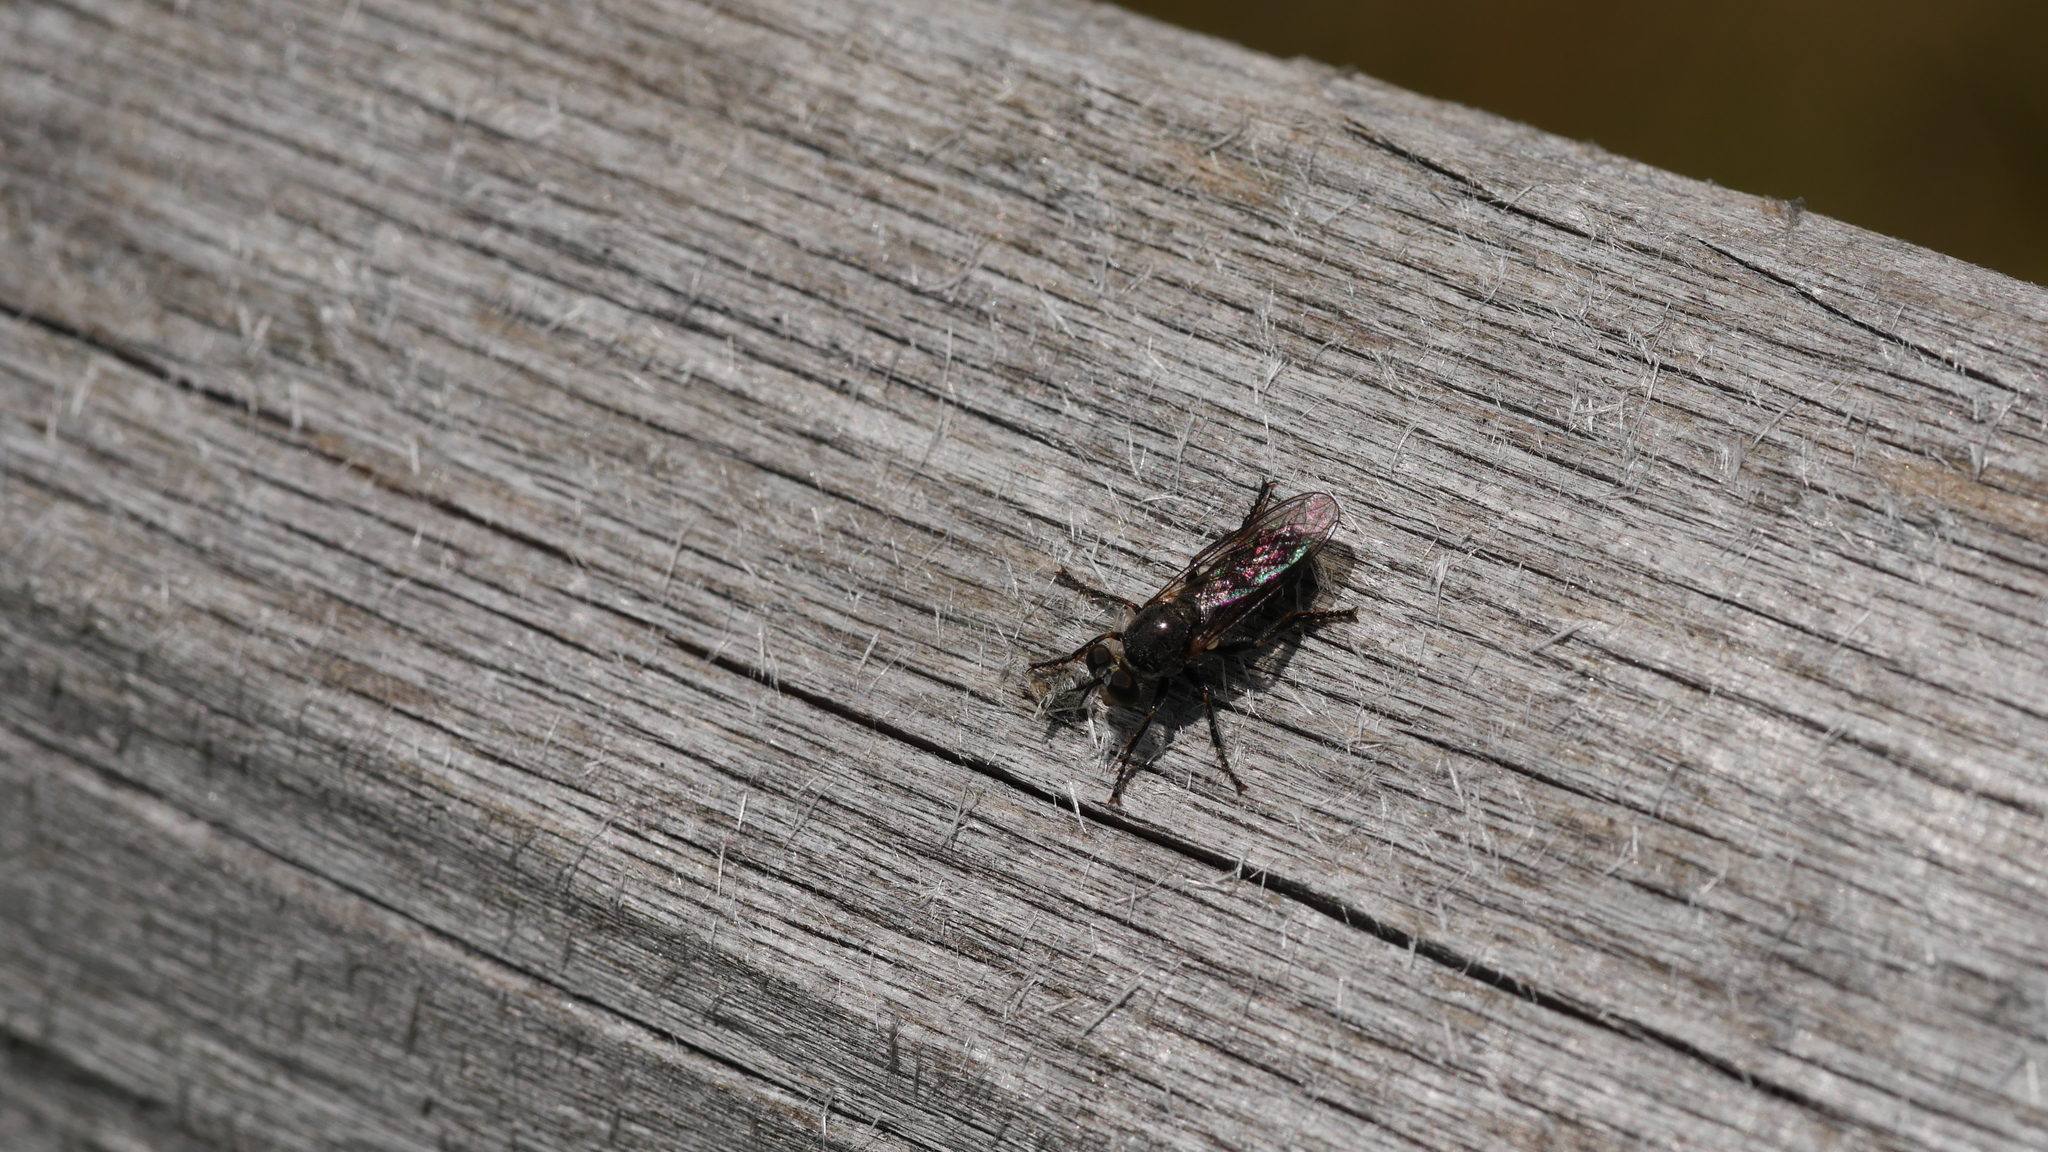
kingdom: Animalia
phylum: Arthropoda
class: Insecta
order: Diptera
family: Asilidae
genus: Atomosia
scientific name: Atomosia puella
